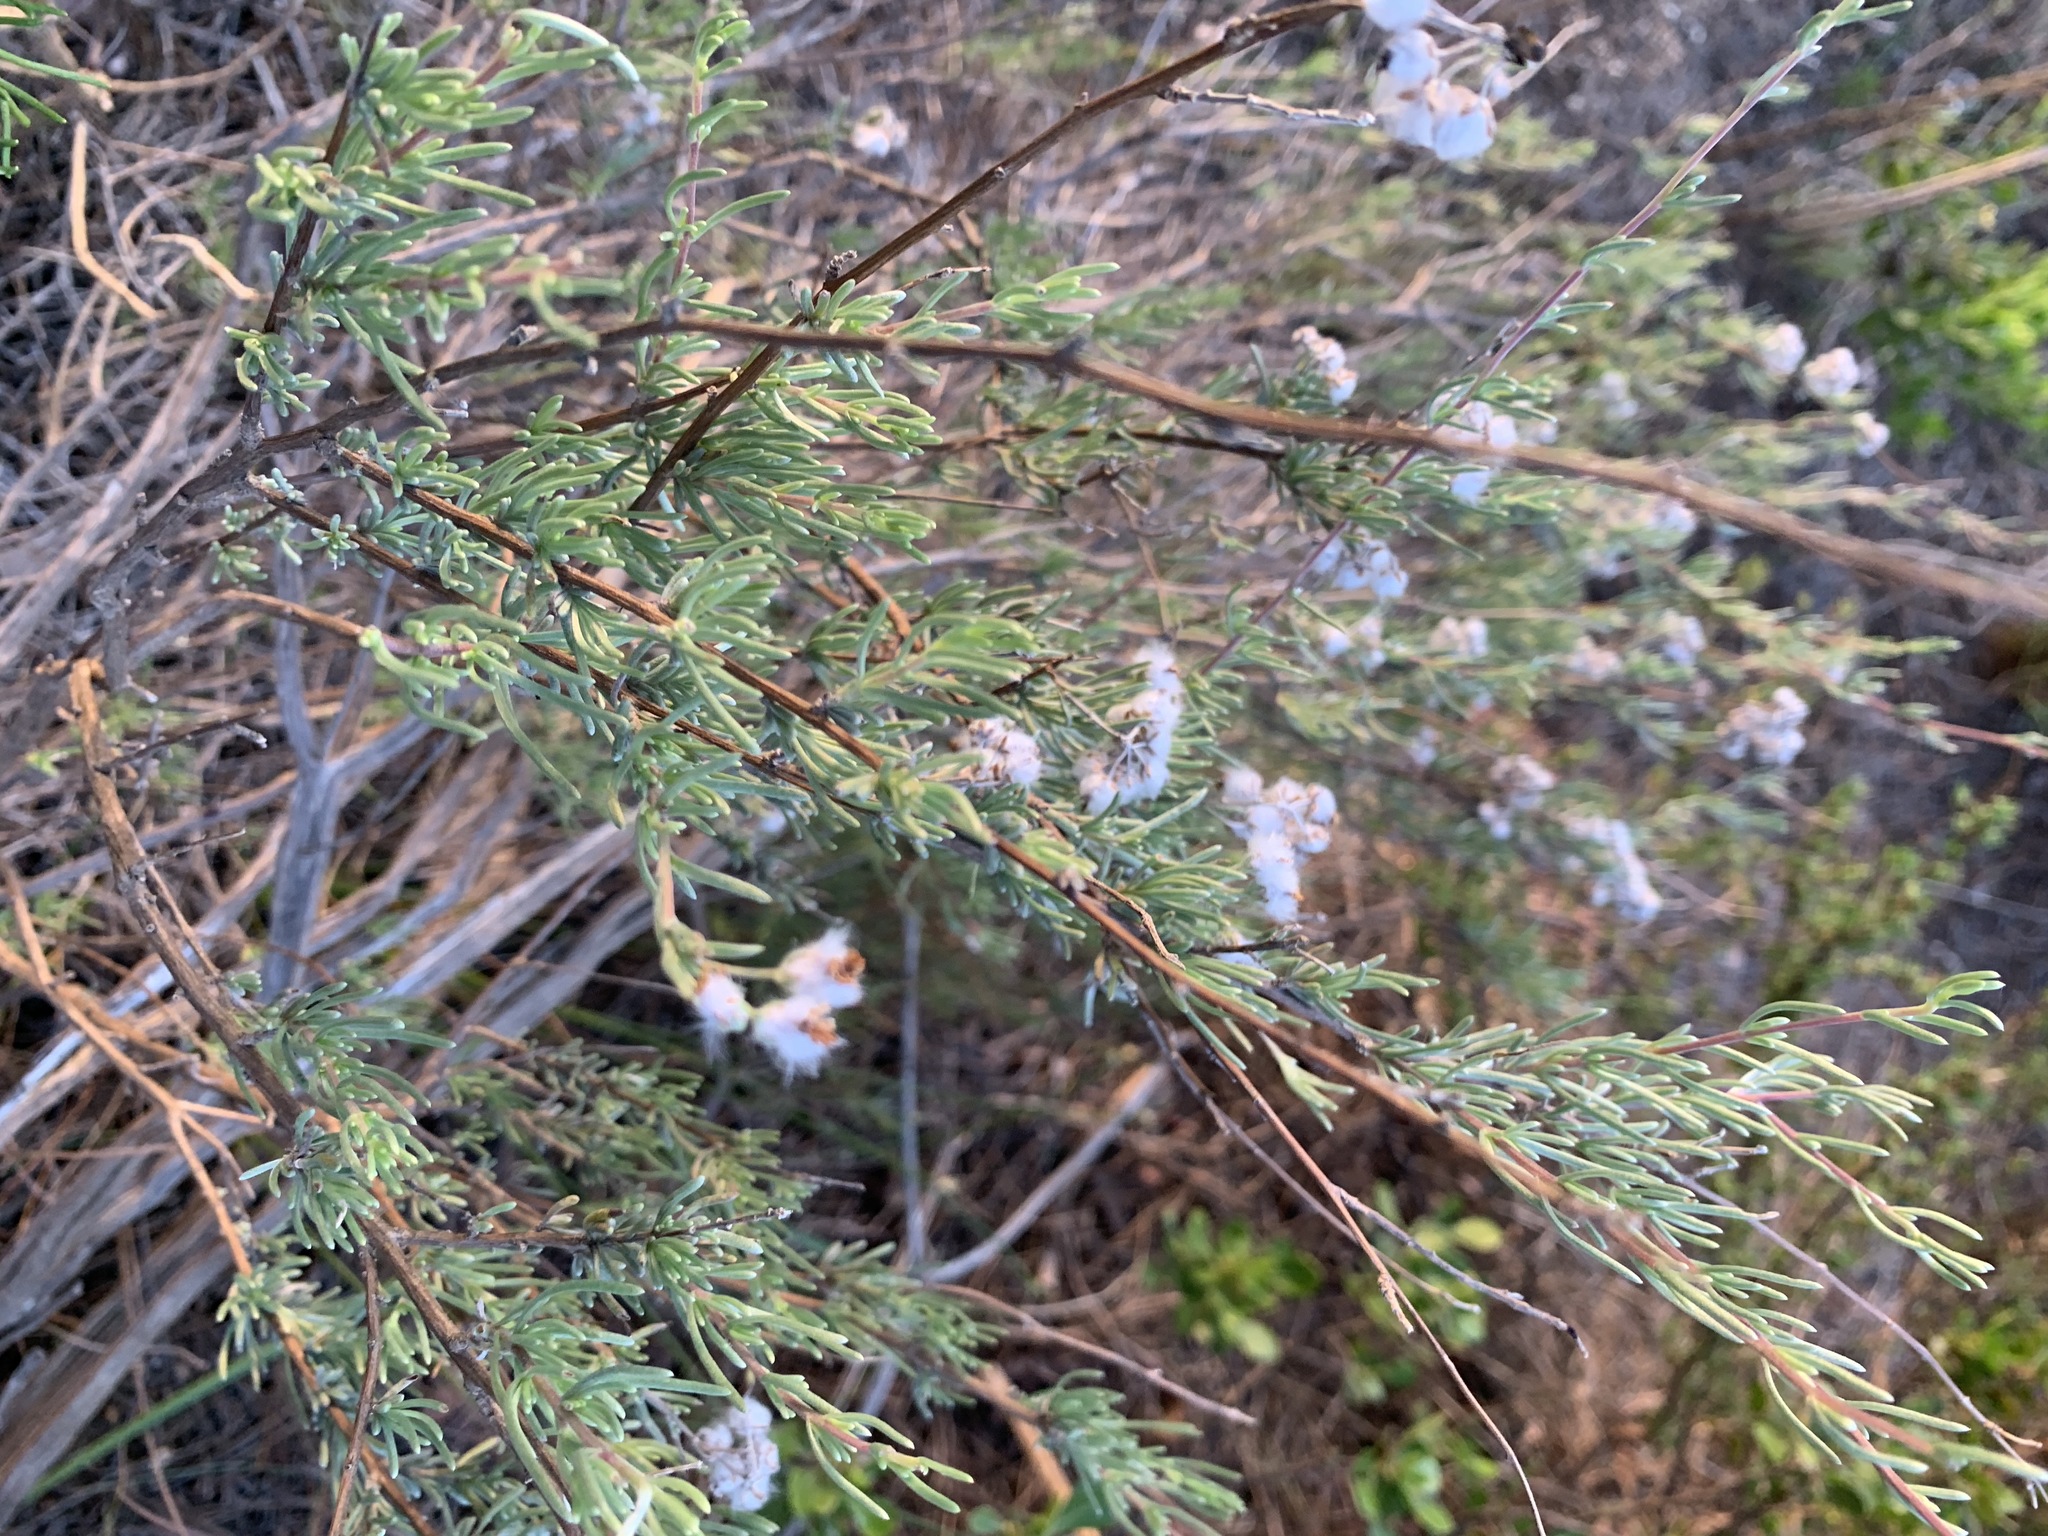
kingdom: Plantae
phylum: Tracheophyta
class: Magnoliopsida
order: Asterales
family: Asteraceae
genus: Eriocephalus
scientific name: Eriocephalus africanus
